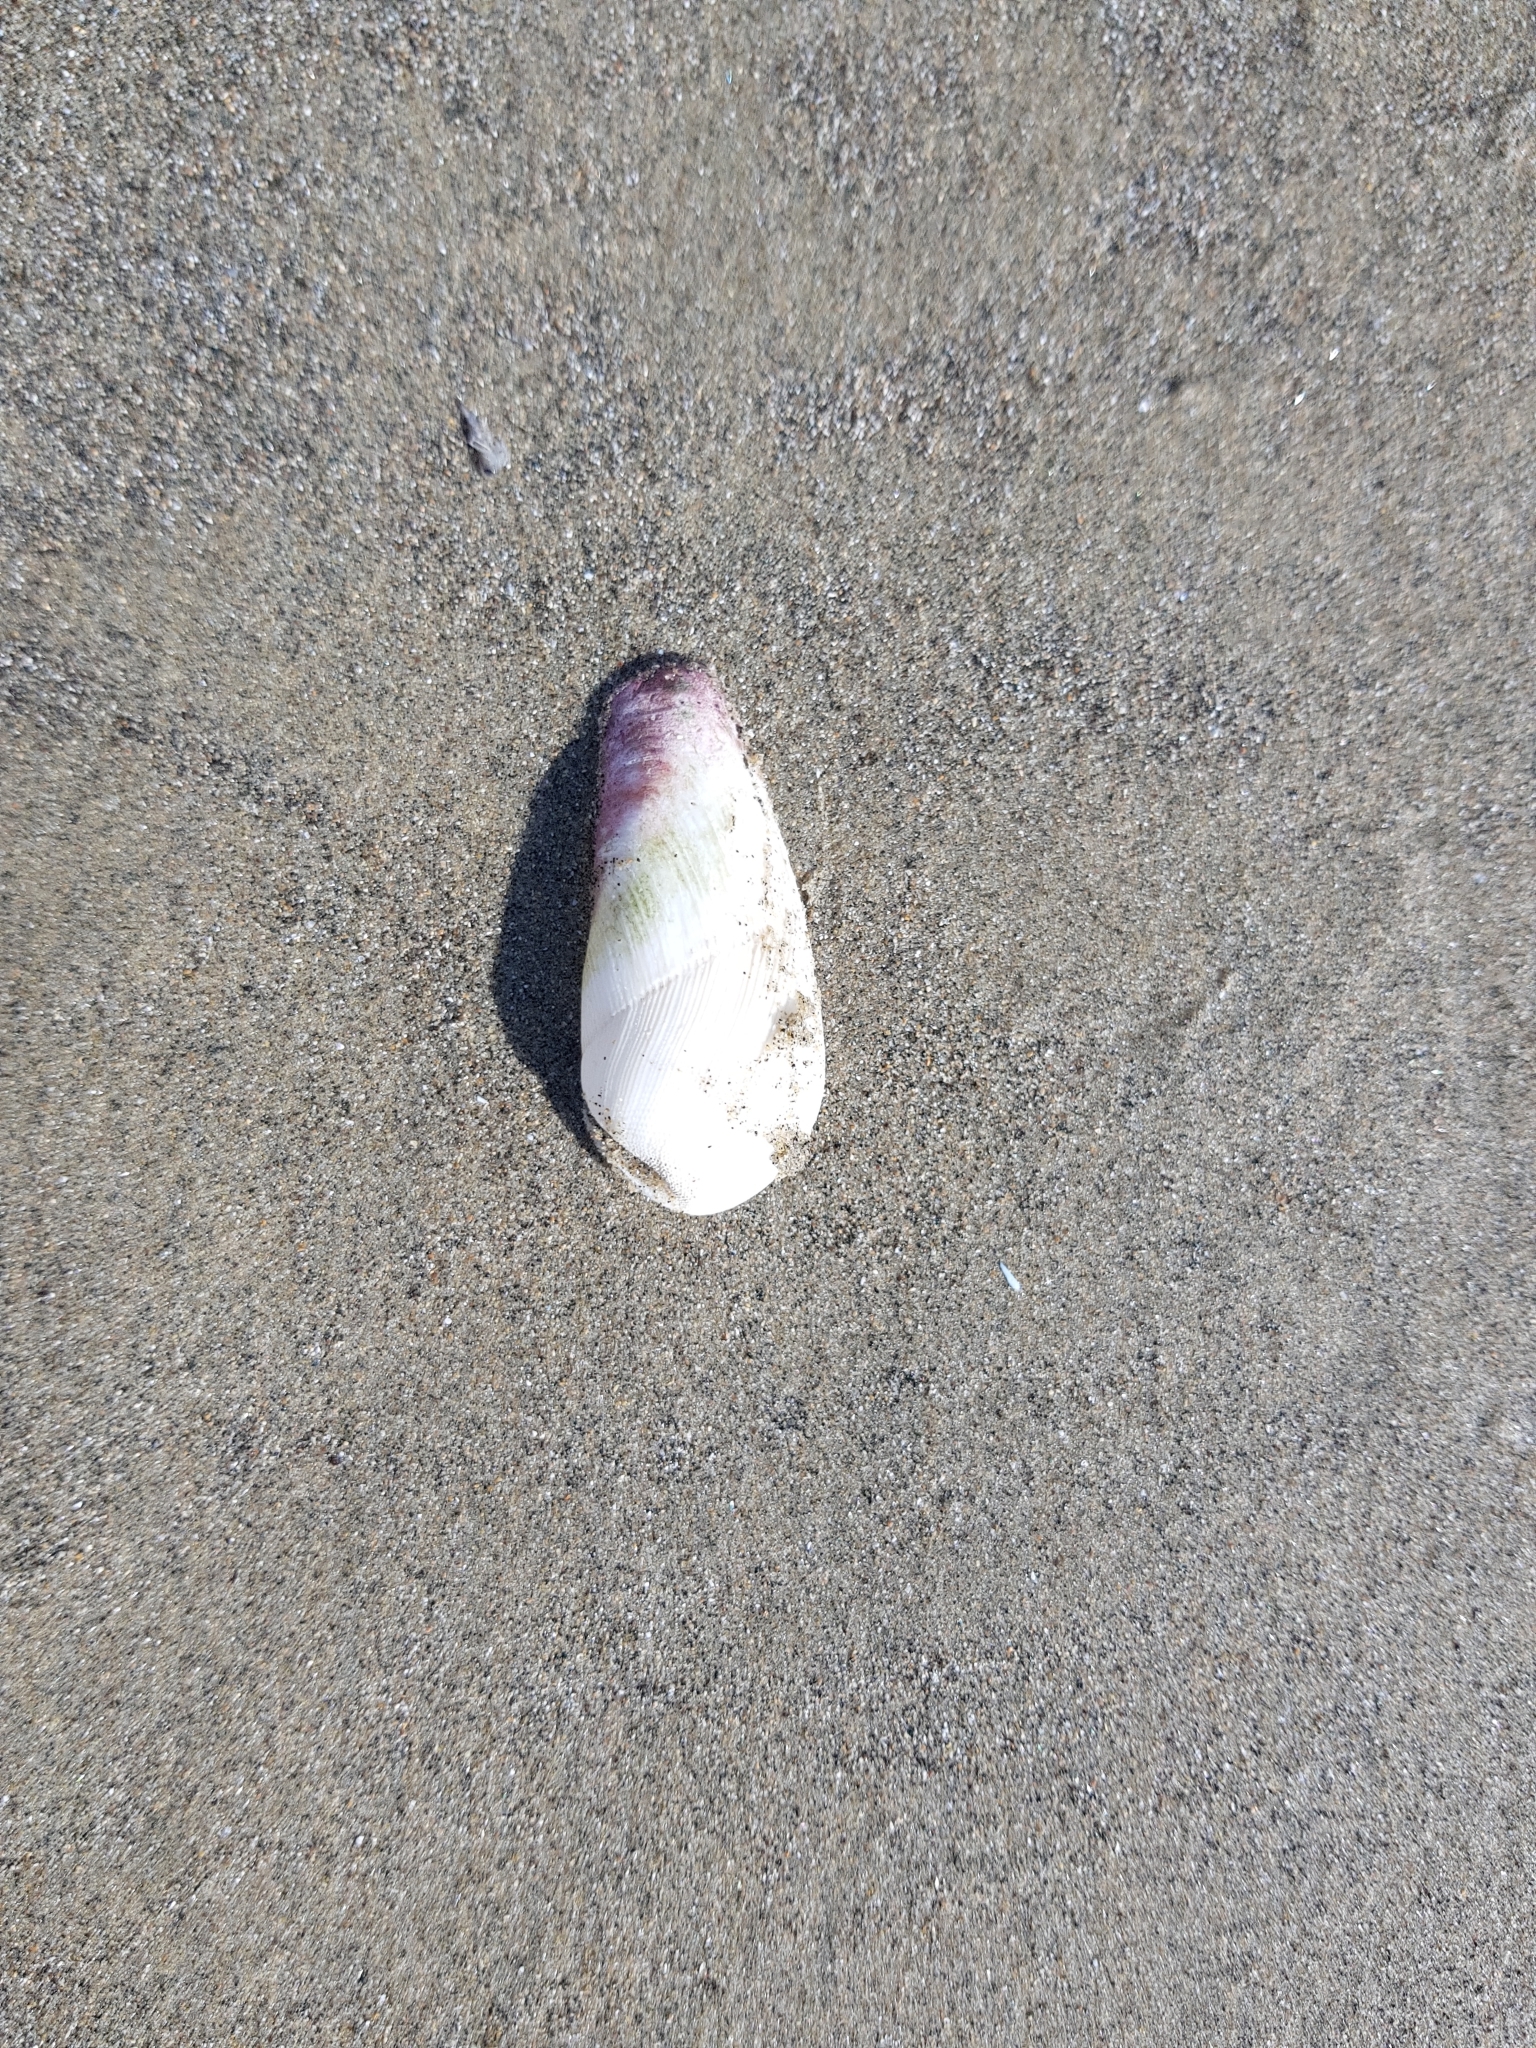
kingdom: Animalia
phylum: Mollusca
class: Bivalvia
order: Myida
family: Pholadidae
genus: Pholadidea
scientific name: Pholadidea suteri
